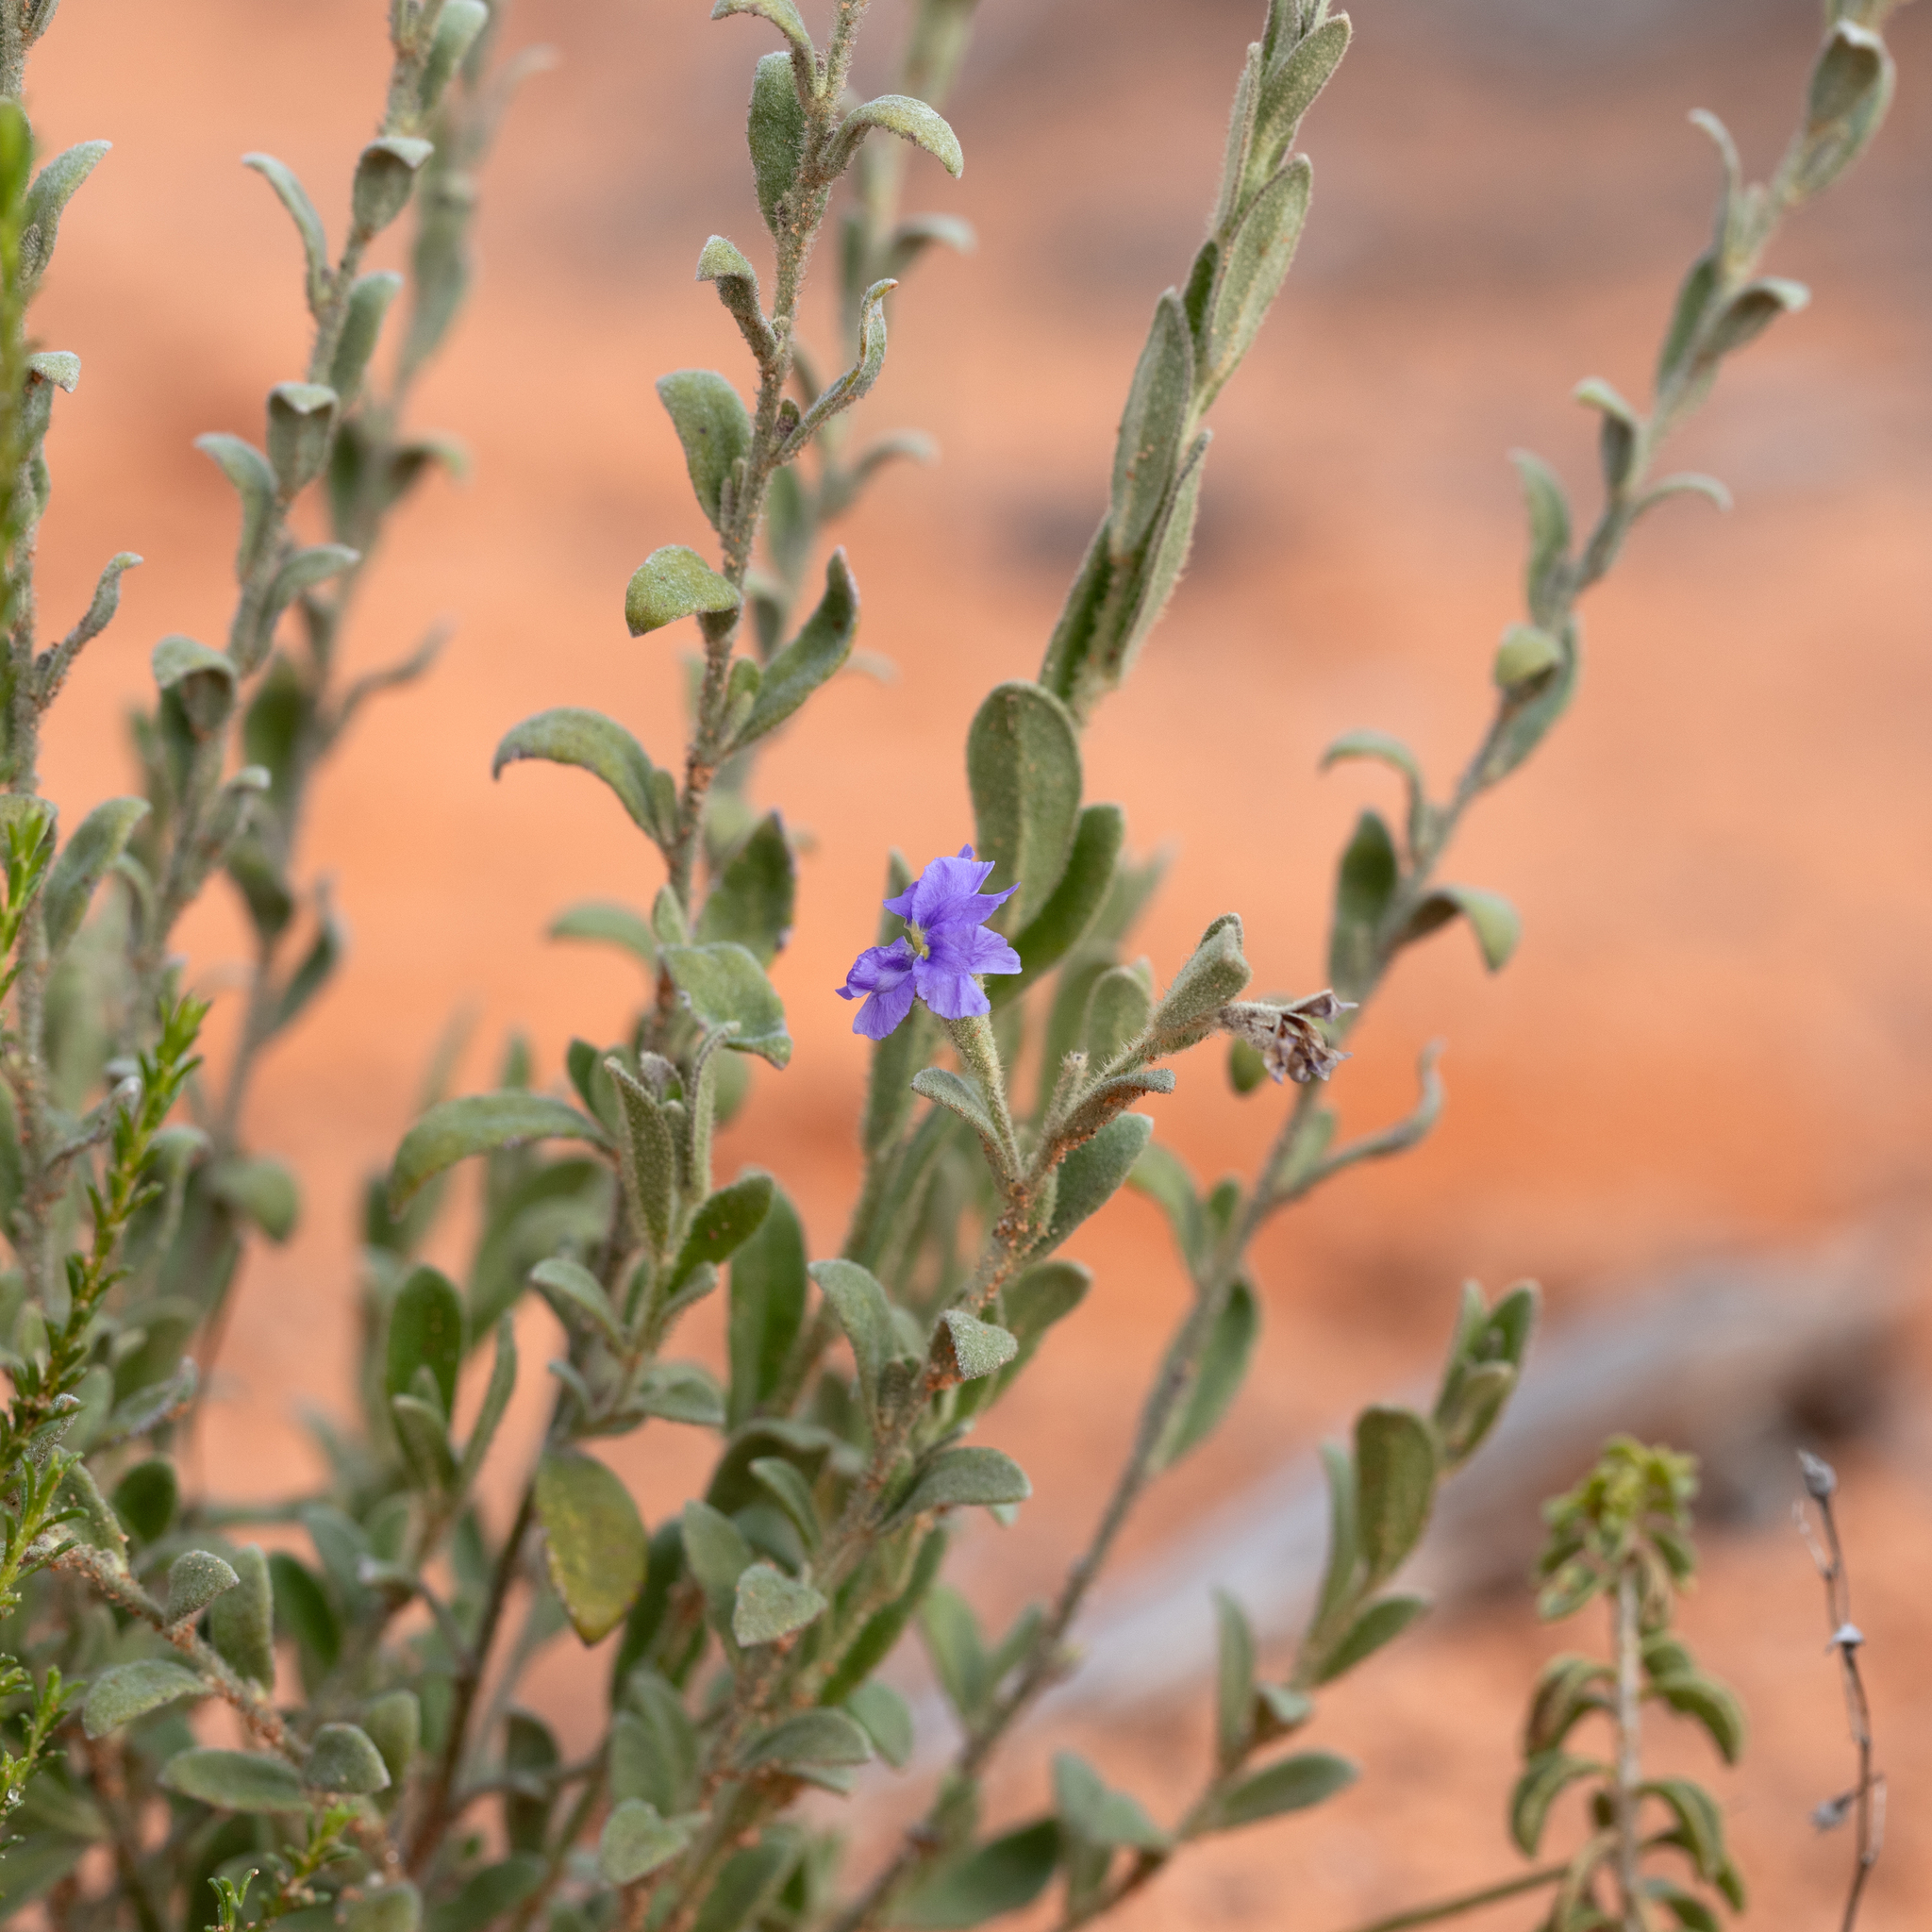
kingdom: Plantae
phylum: Tracheophyta
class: Magnoliopsida
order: Asterales
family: Goodeniaceae
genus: Dampiera
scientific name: Dampiera marifolia
